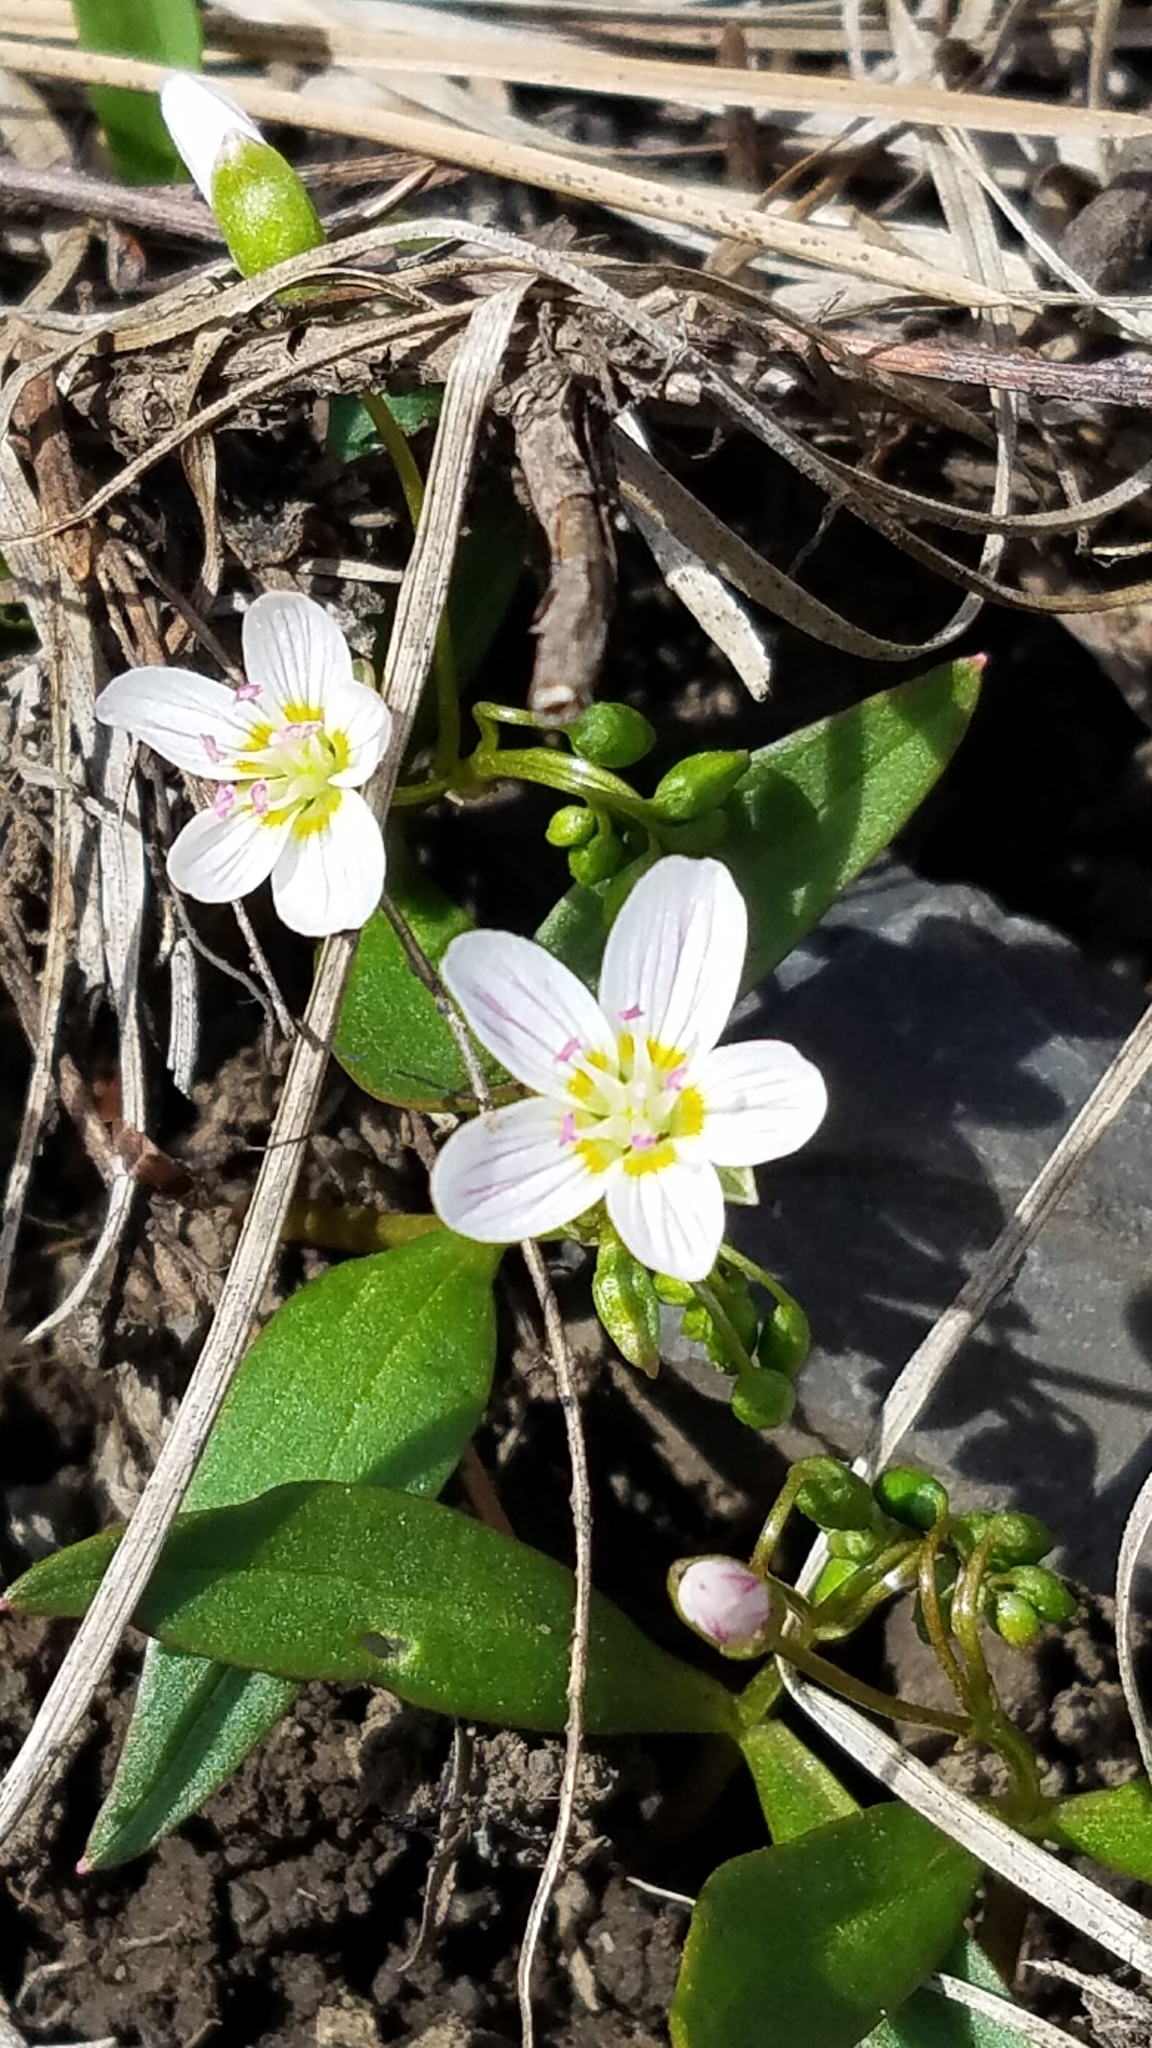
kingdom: Plantae
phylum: Tracheophyta
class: Magnoliopsida
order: Caryophyllales
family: Montiaceae
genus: Claytonia
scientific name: Claytonia lanceolata
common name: Western spring-beauty
